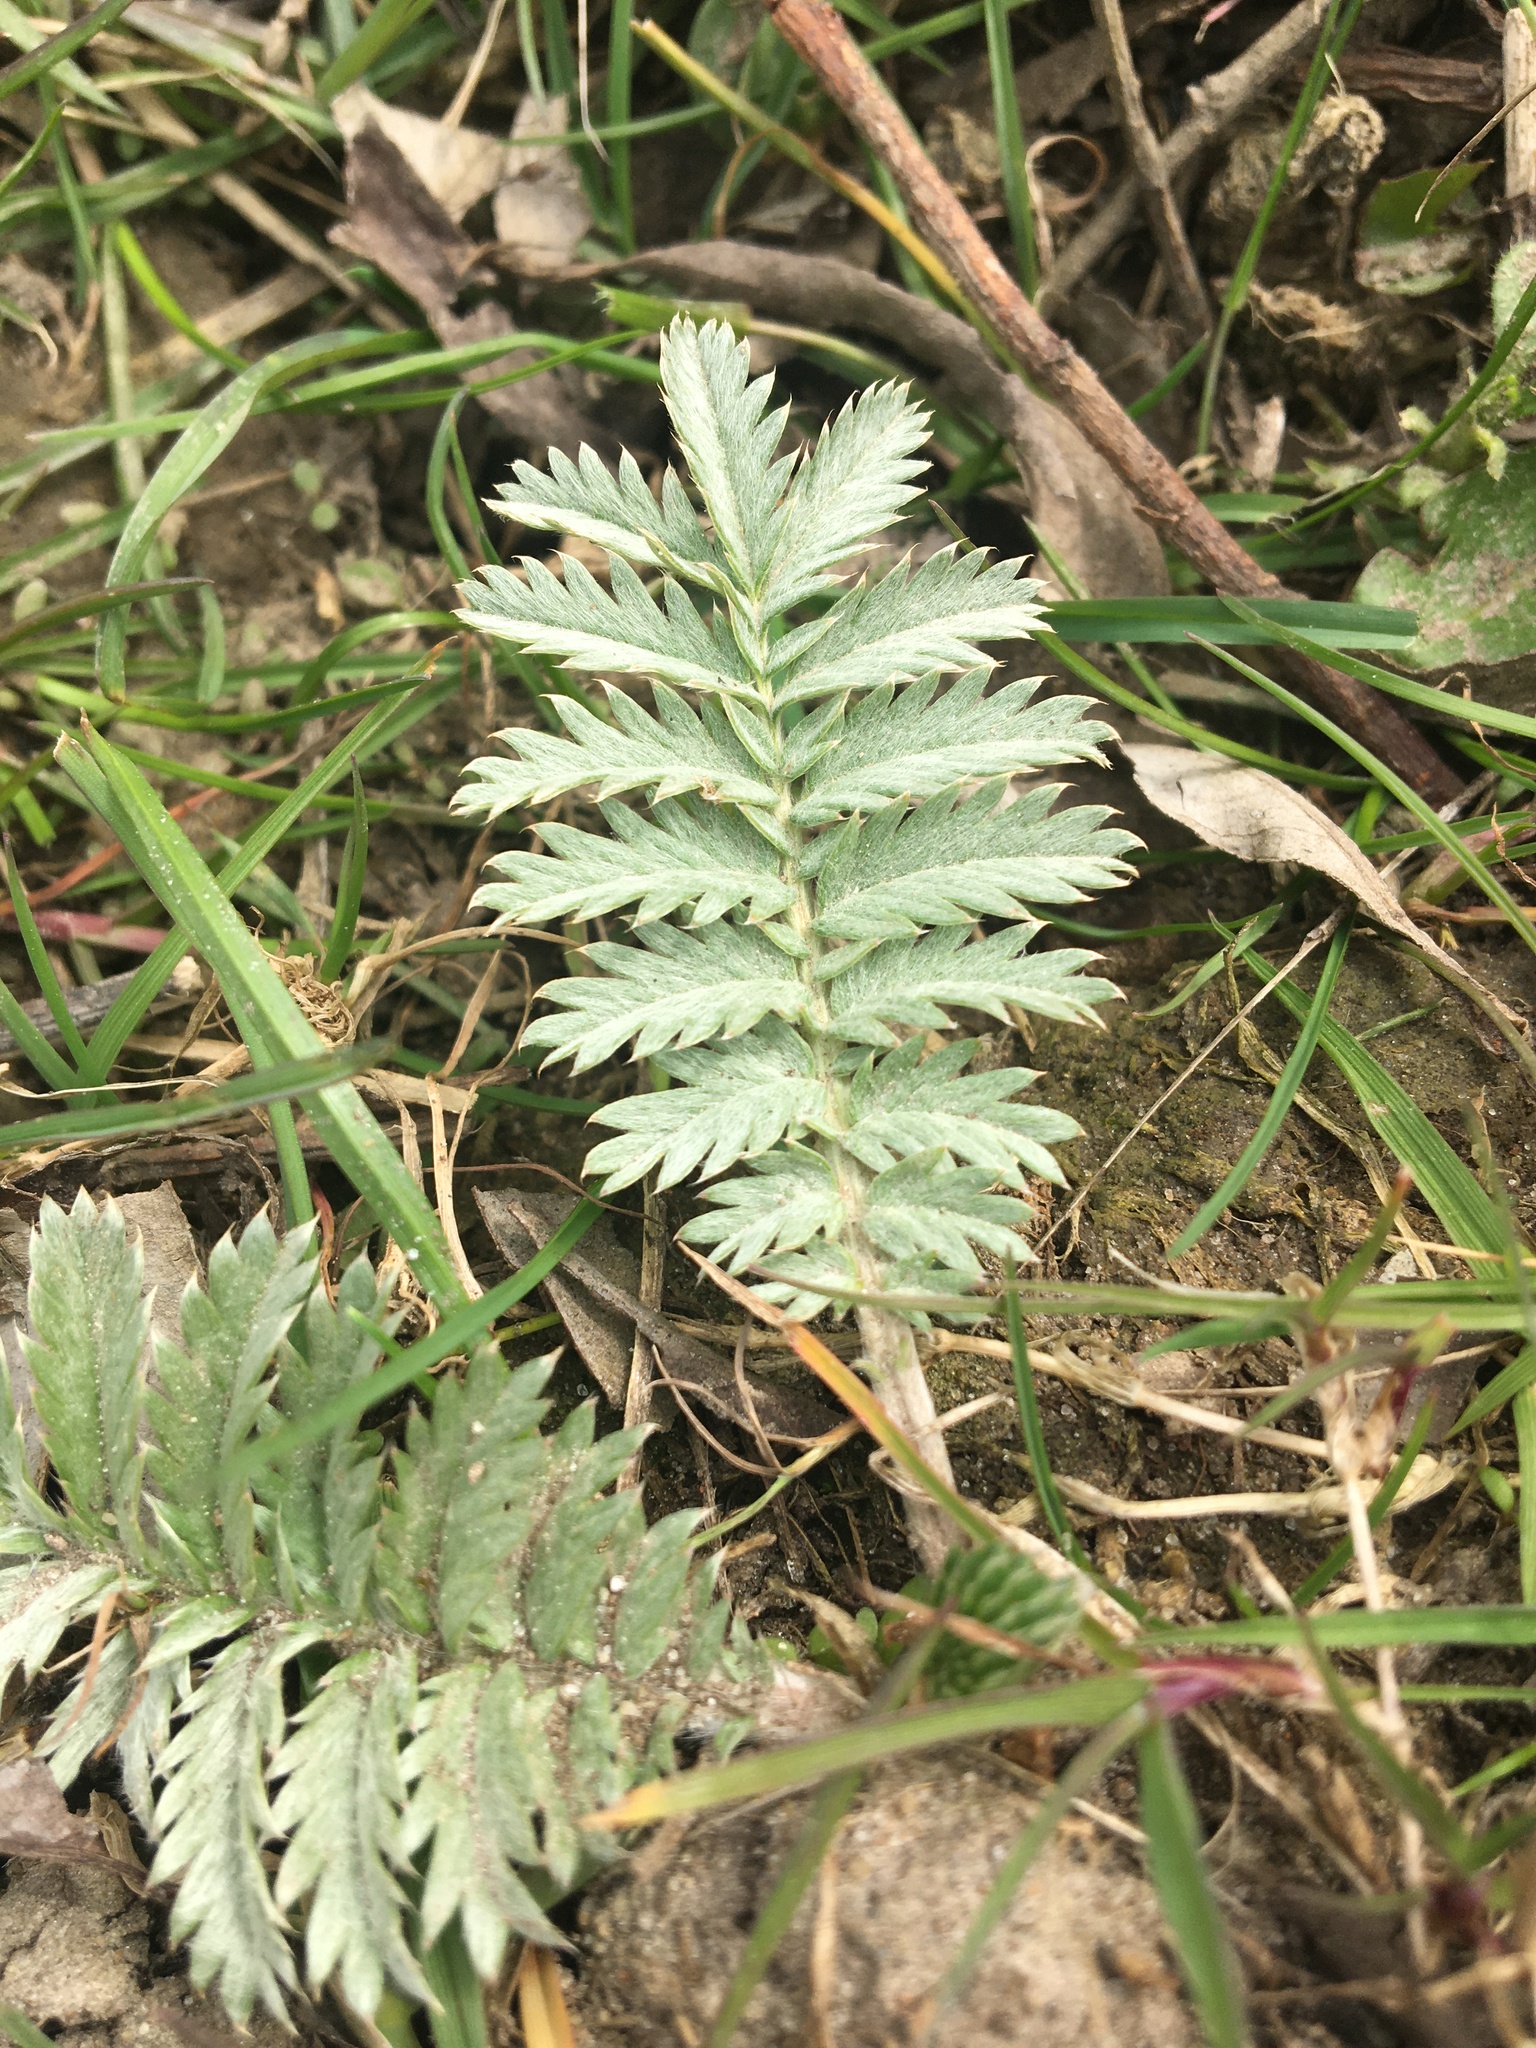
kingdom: Plantae
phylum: Tracheophyta
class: Magnoliopsida
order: Rosales
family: Rosaceae
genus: Argentina
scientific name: Argentina anserina
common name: Common silverweed
